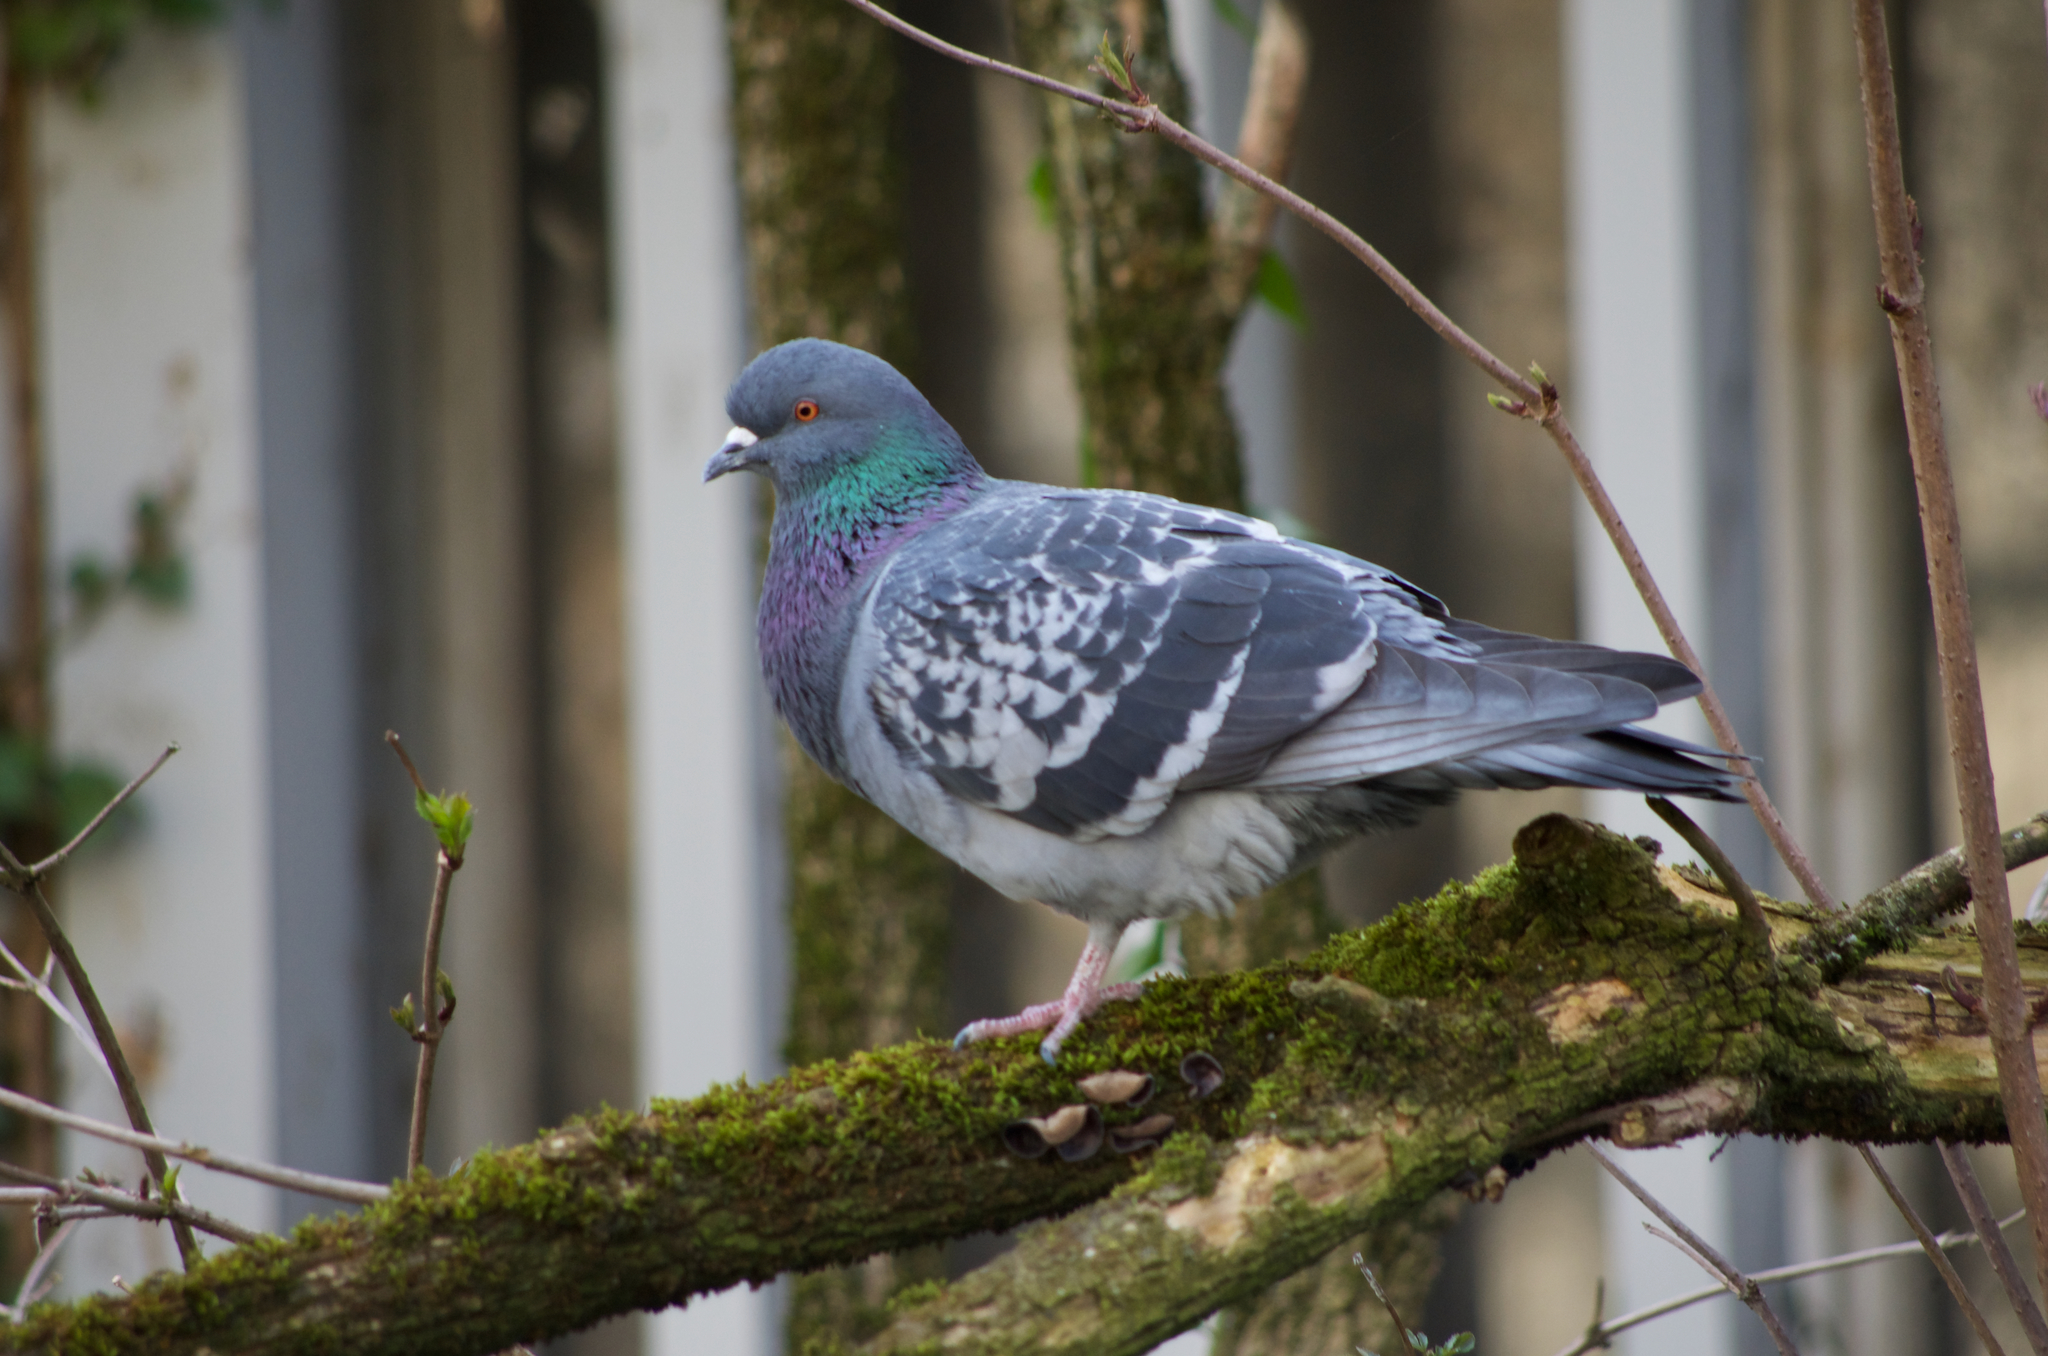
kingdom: Animalia
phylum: Chordata
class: Aves
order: Columbiformes
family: Columbidae
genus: Columba
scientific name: Columba livia
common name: Rock pigeon
